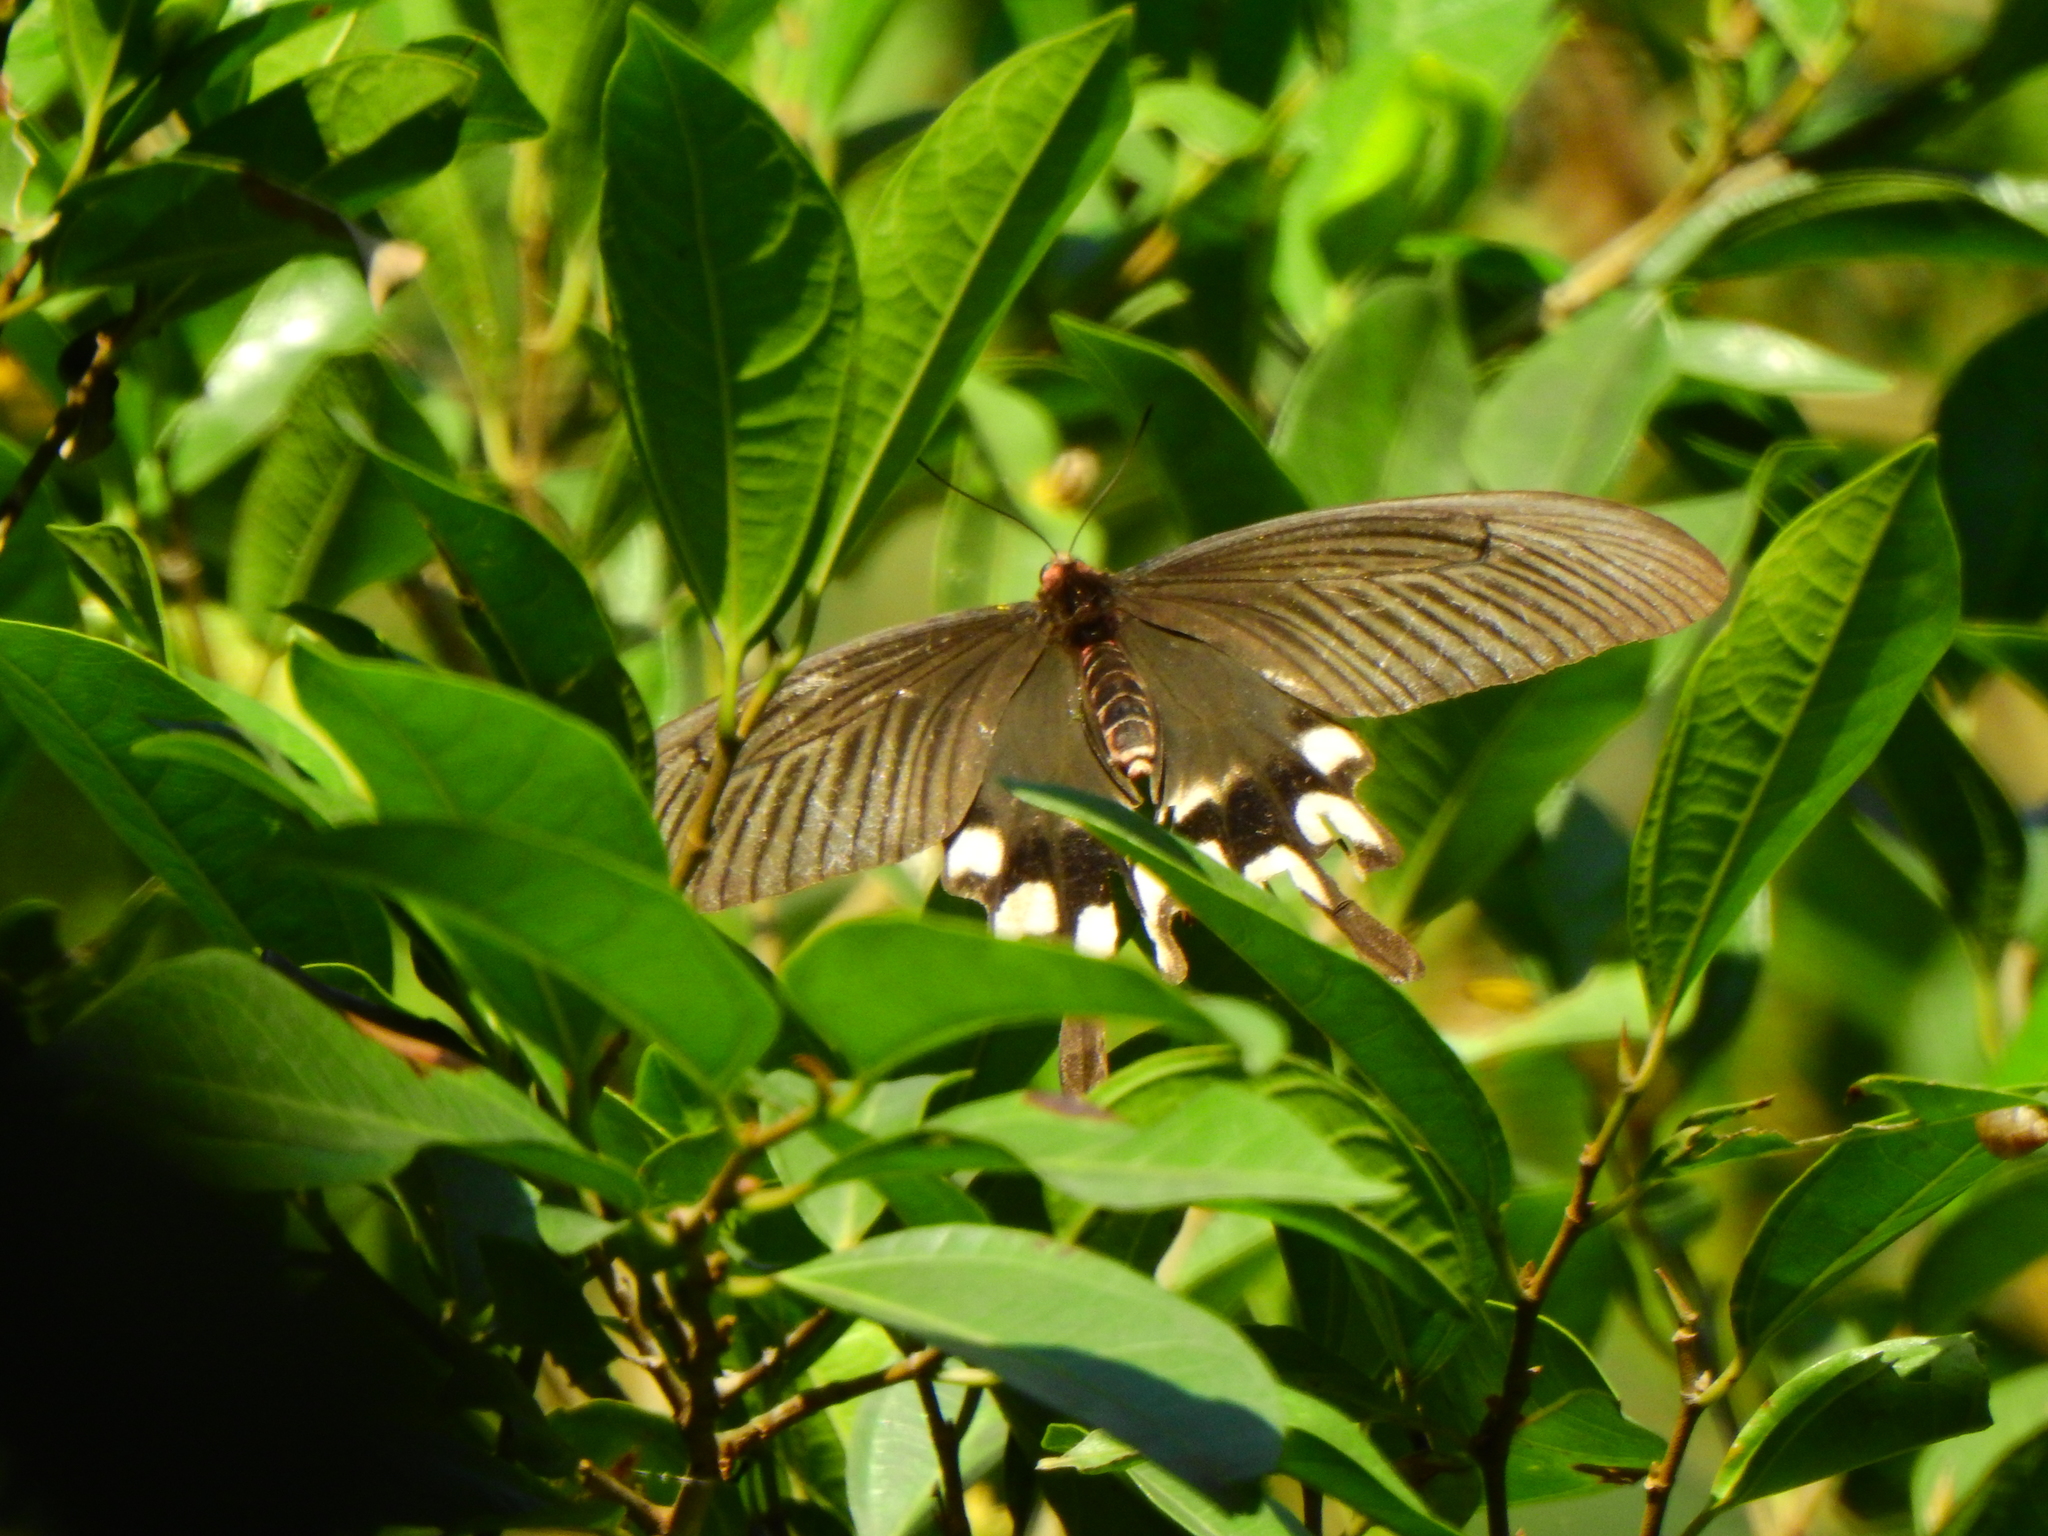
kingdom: Animalia
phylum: Arthropoda
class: Insecta
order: Lepidoptera
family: Papilionidae
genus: Byasa
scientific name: Byasa impediens
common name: Pink-spotted windmill
